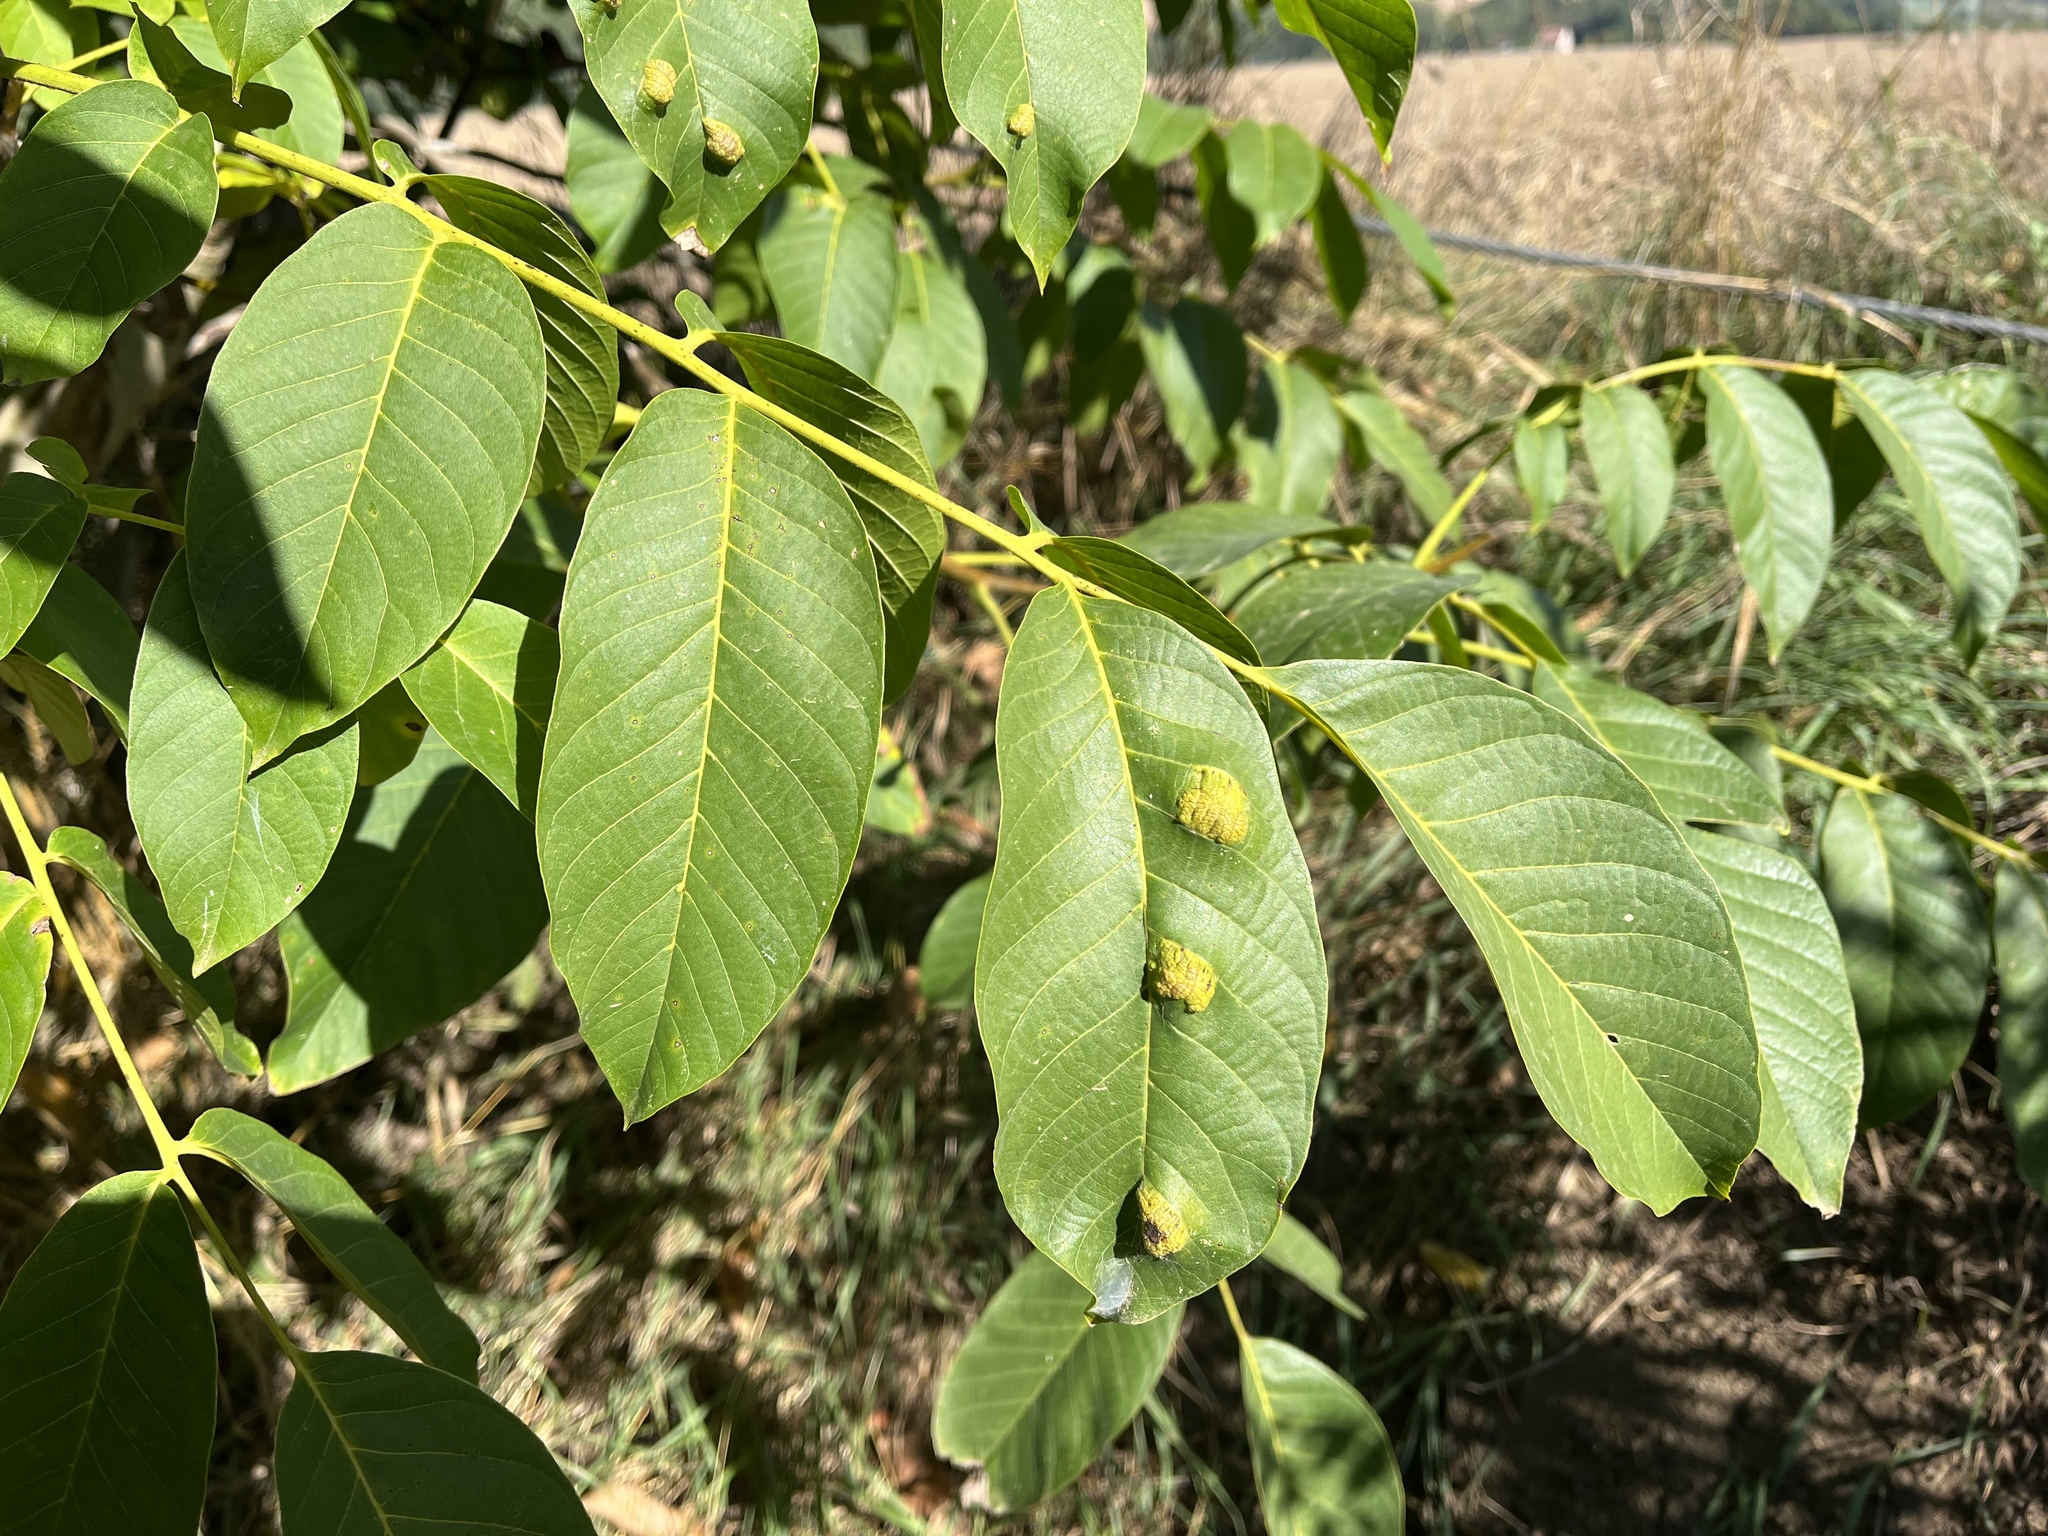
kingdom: Animalia
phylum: Arthropoda
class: Arachnida
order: Trombidiformes
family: Eriophyidae
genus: Aceria
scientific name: Aceria erinea
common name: Persian walnut erineum mite
